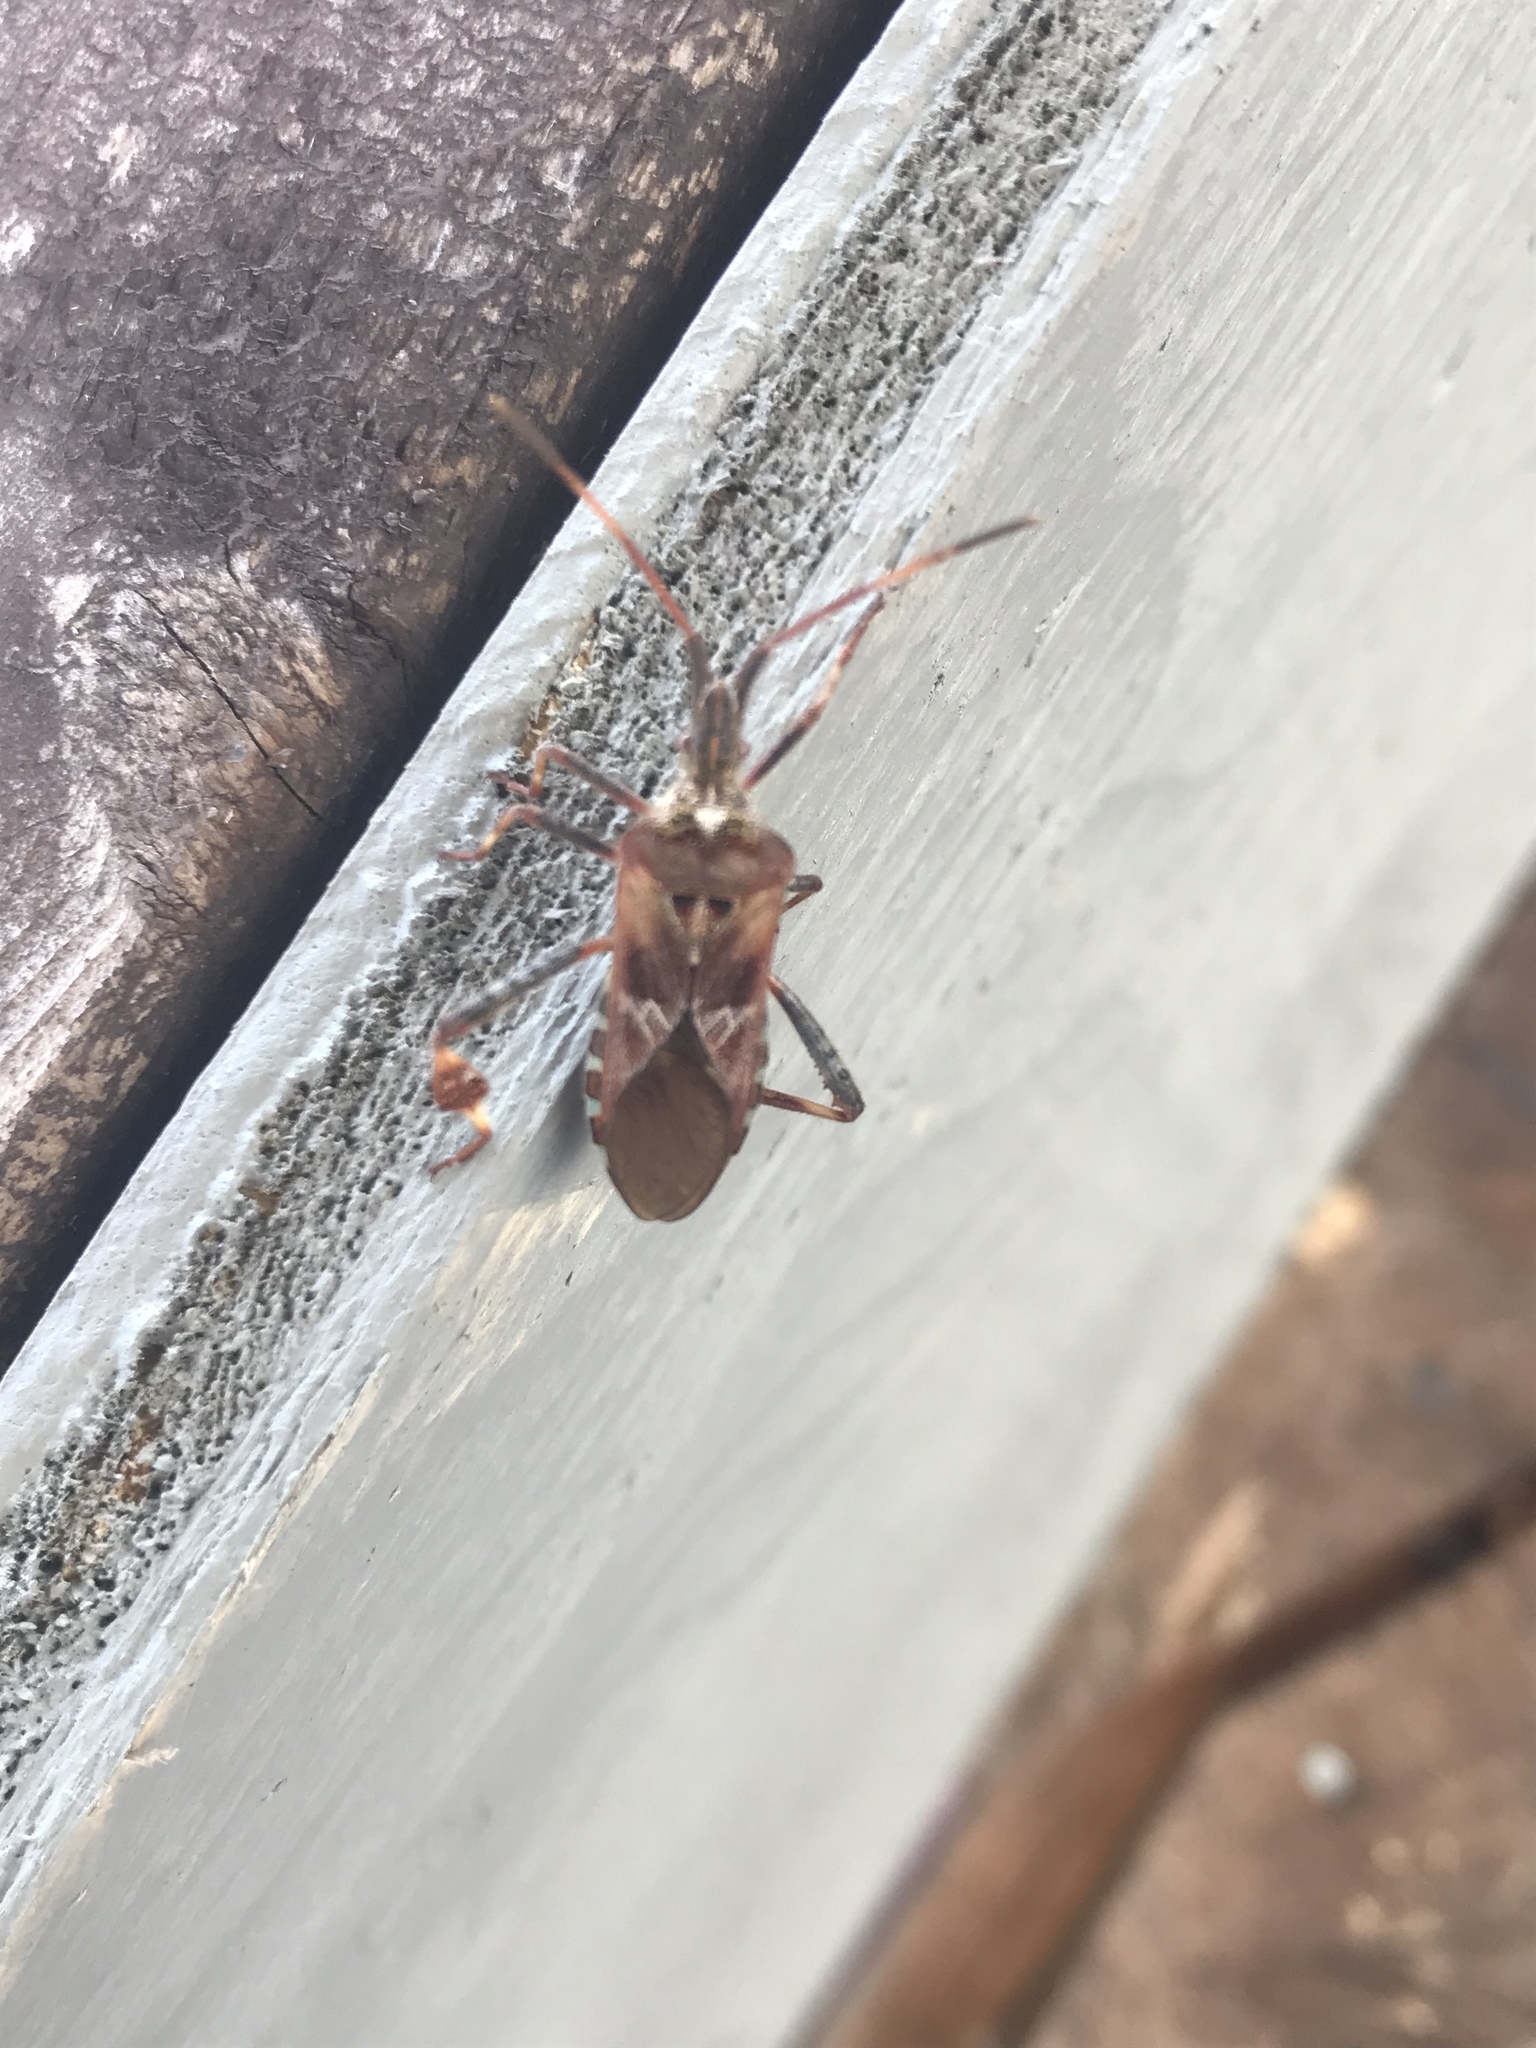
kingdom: Animalia
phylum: Arthropoda
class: Insecta
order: Hemiptera
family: Coreidae
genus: Leptoglossus
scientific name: Leptoglossus occidentalis
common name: Western conifer-seed bug
